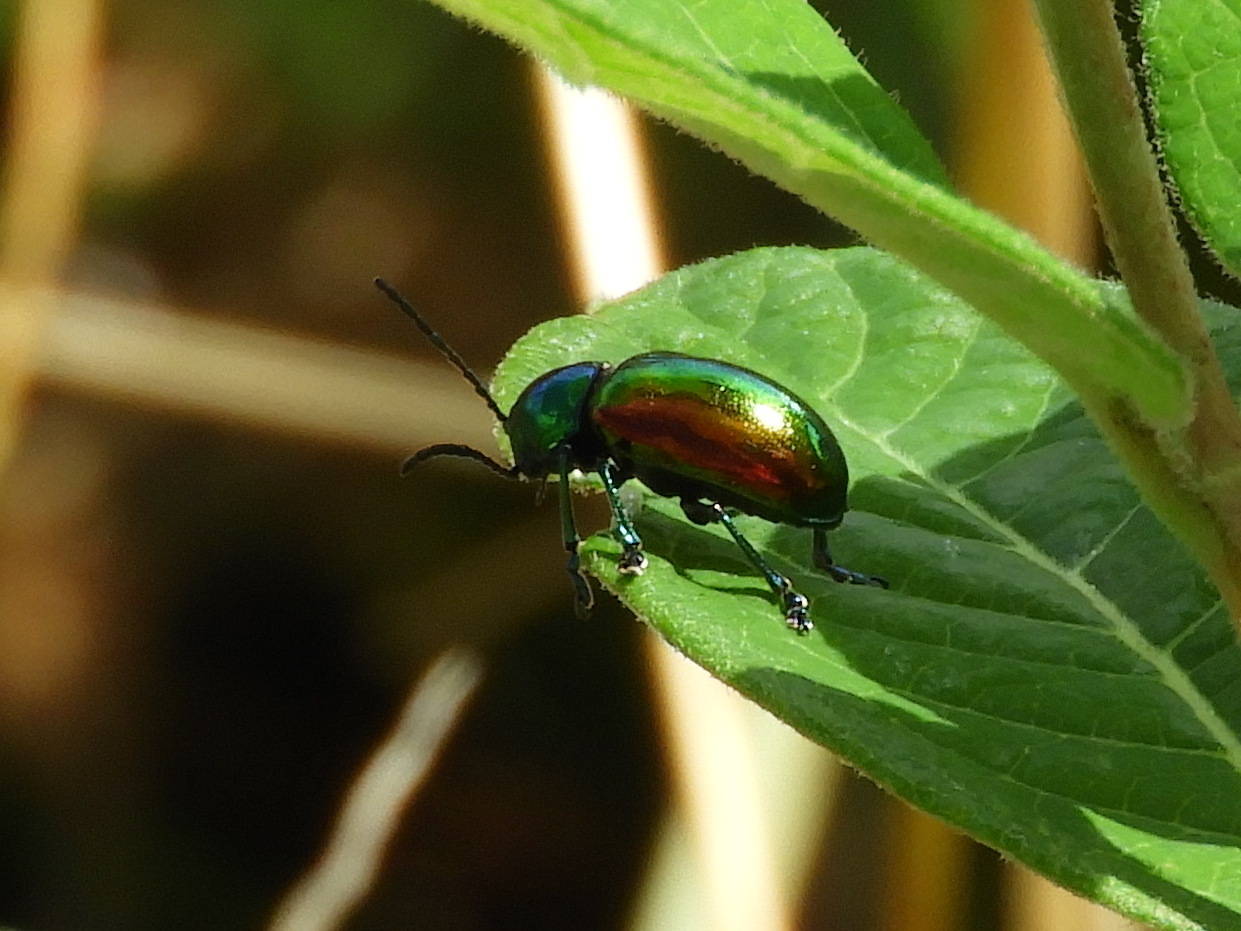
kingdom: Animalia
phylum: Arthropoda
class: Insecta
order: Coleoptera
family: Chrysomelidae
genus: Chrysochus
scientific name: Chrysochus auratus
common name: Dogbane leaf beetle
